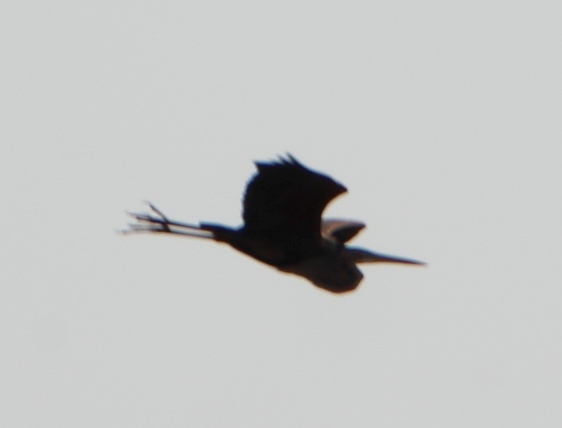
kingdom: Animalia
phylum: Chordata
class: Aves
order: Pelecaniformes
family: Ardeidae
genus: Ardea
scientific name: Ardea purpurea
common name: Purple heron
